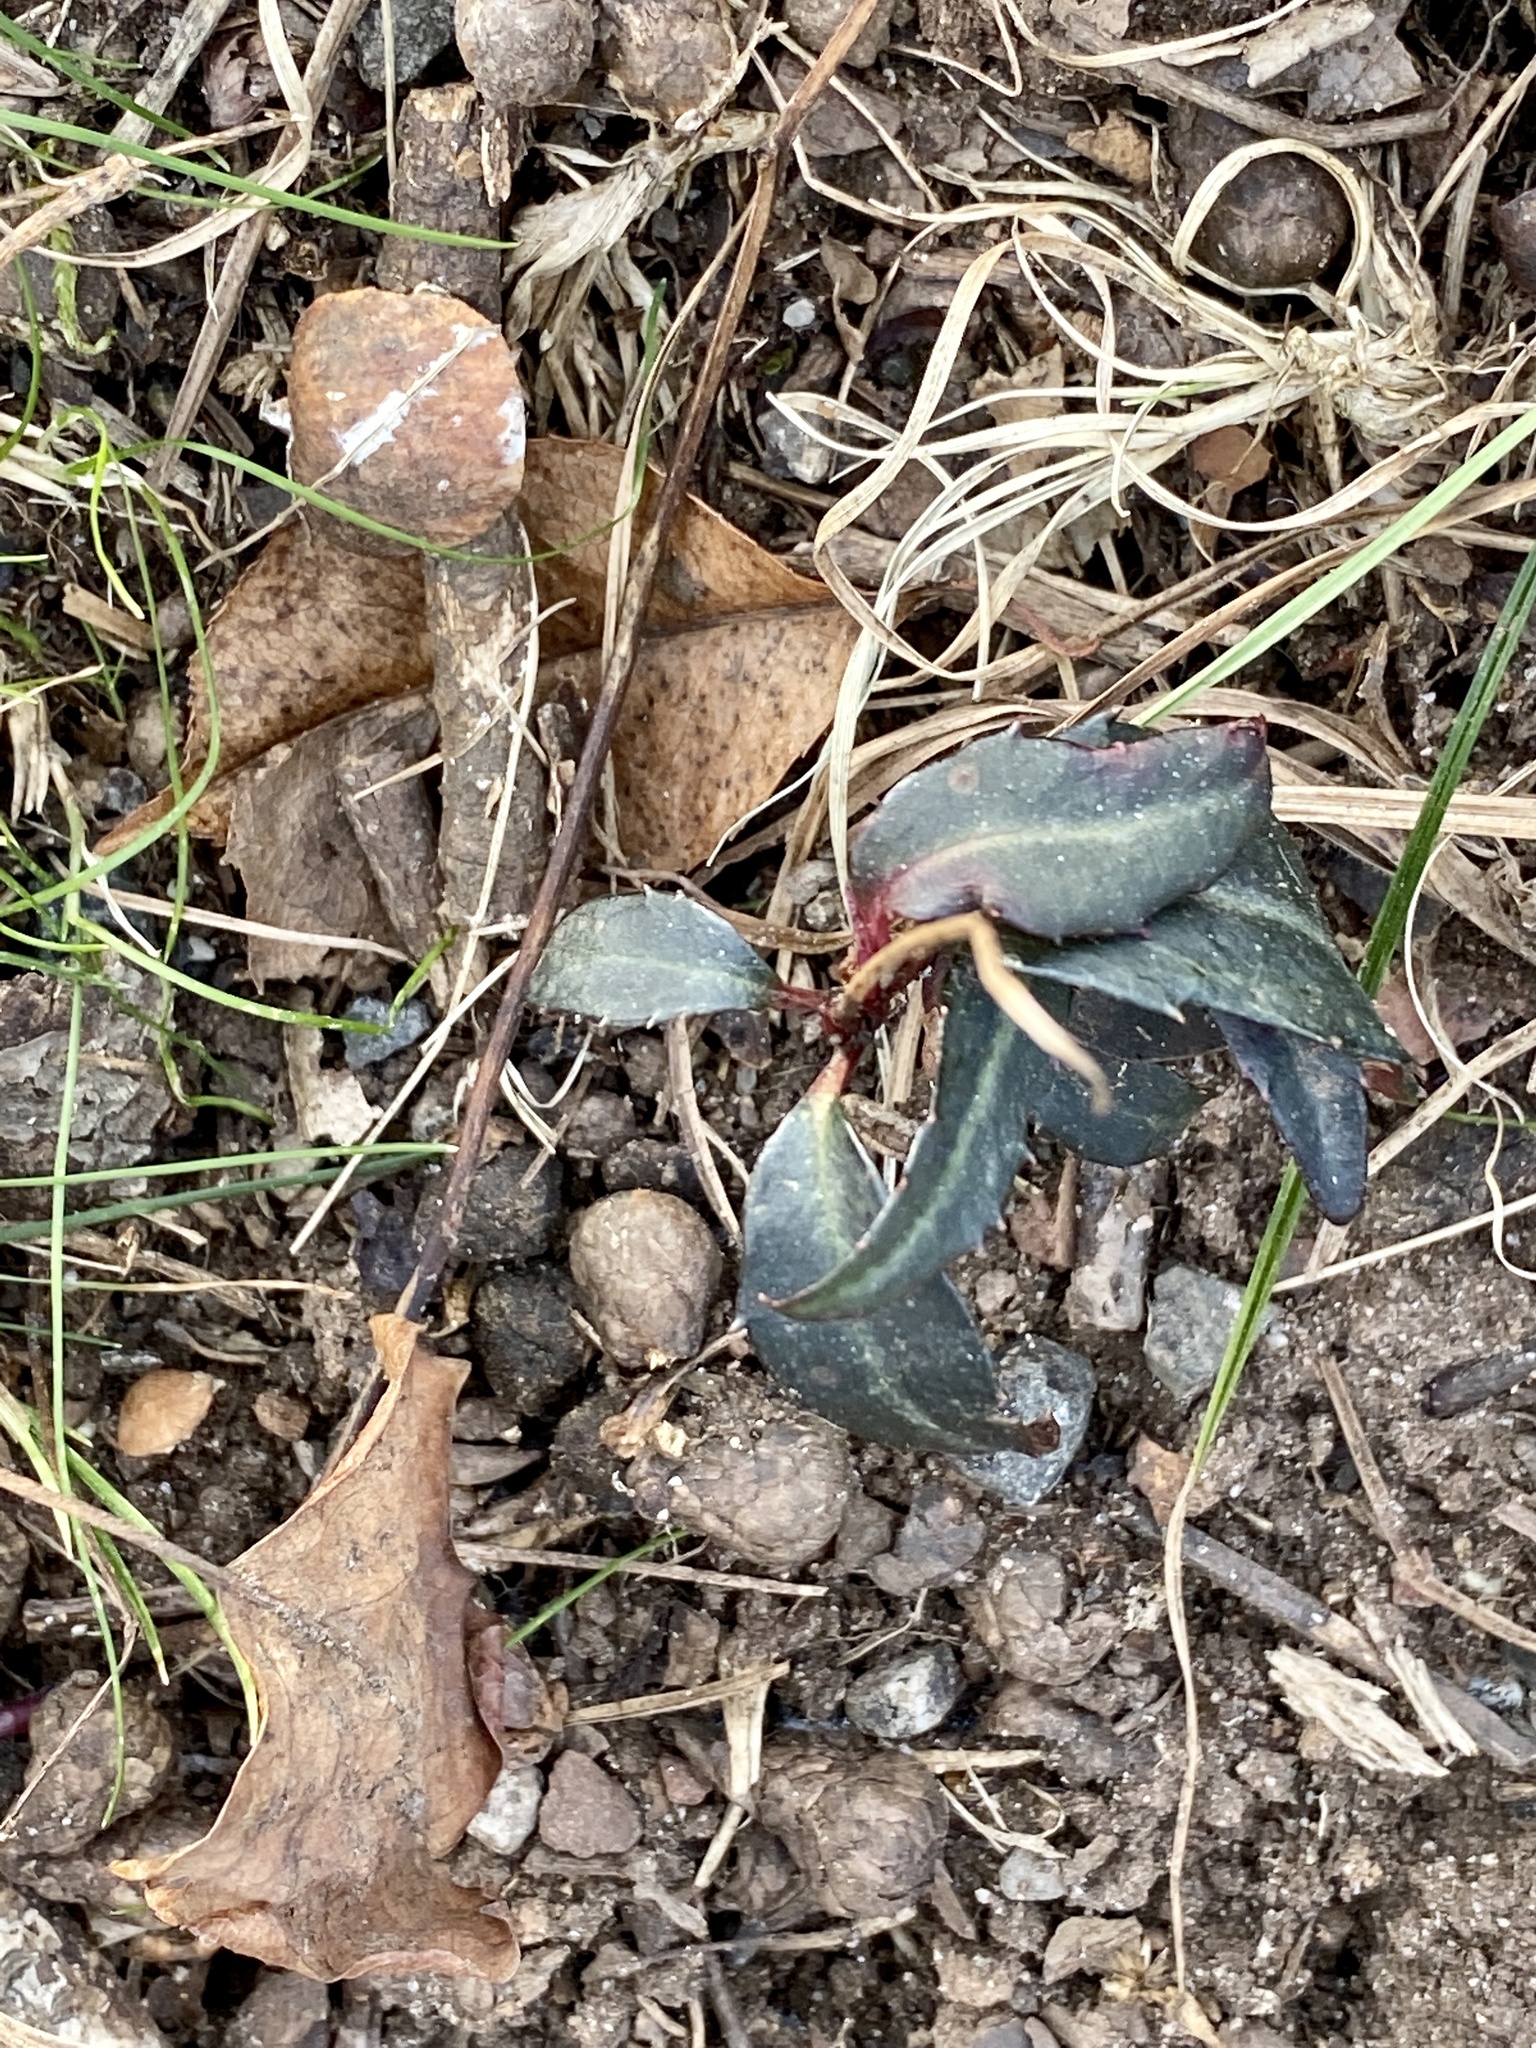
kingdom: Plantae
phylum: Tracheophyta
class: Magnoliopsida
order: Ericales
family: Ericaceae
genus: Chimaphila
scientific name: Chimaphila maculata
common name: Spotted pipsissewa
